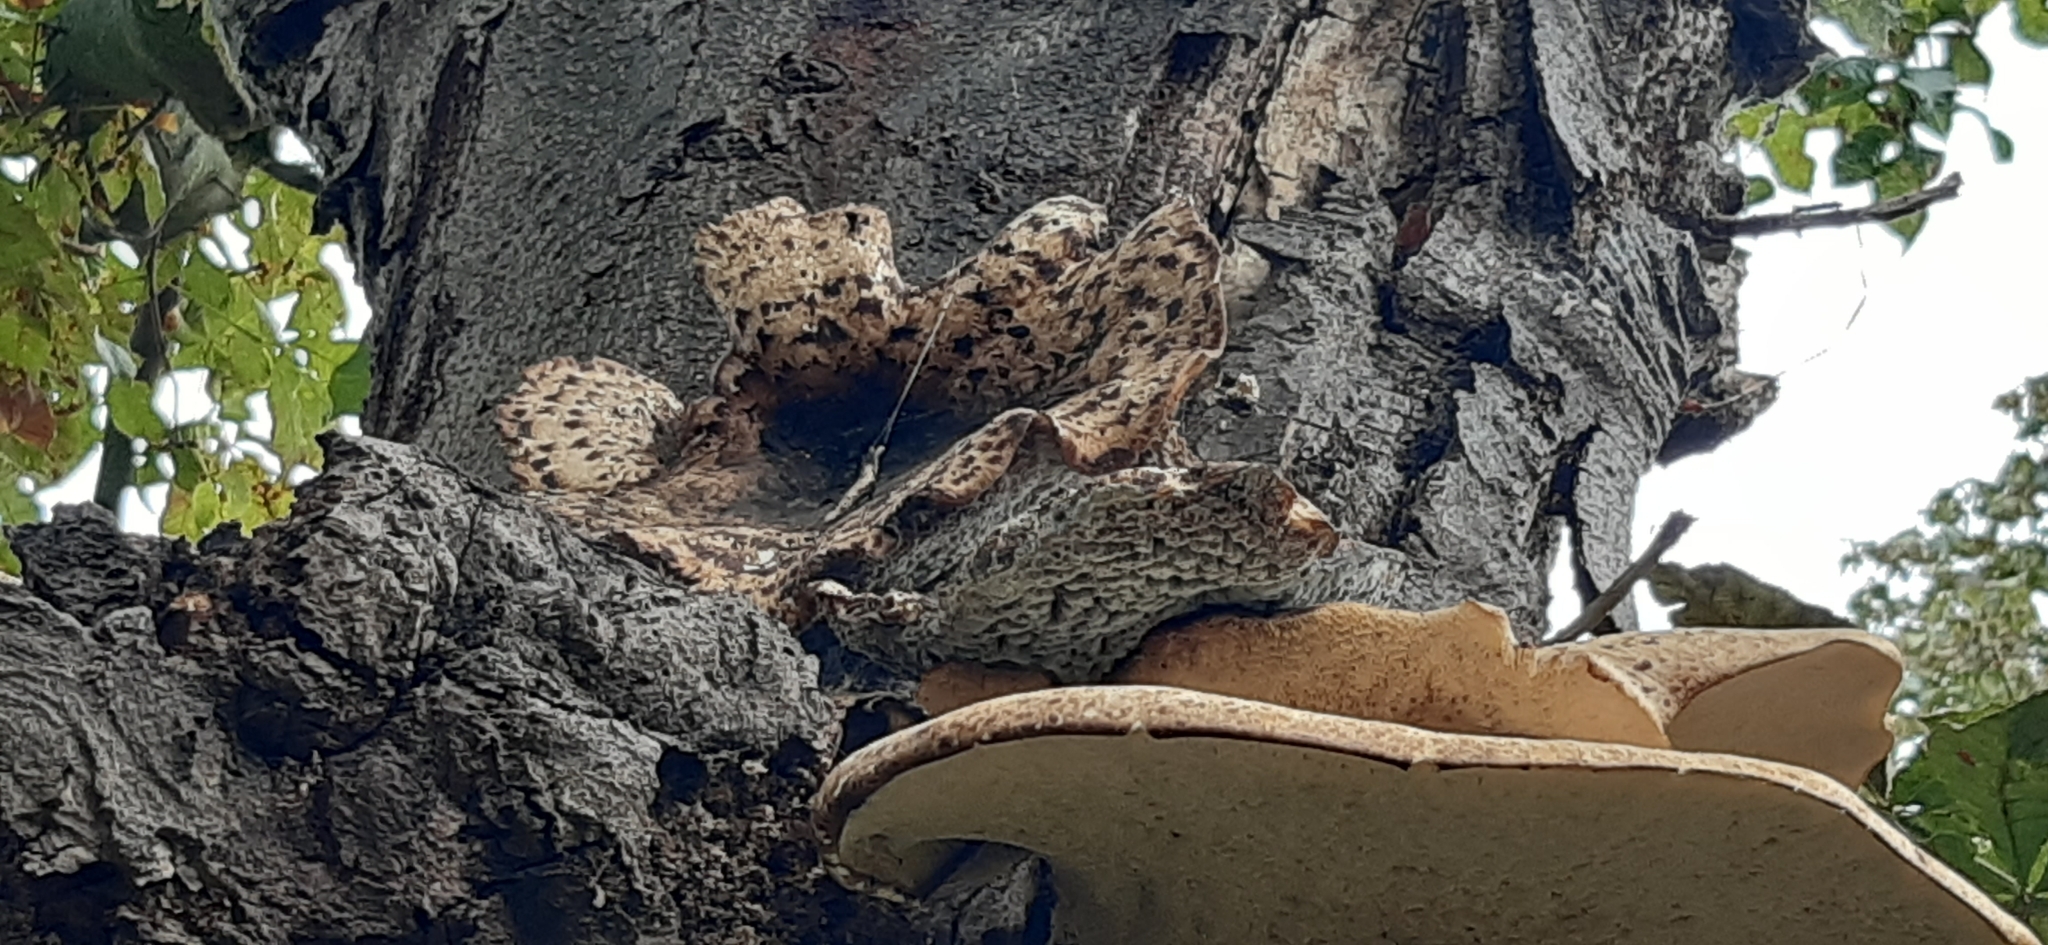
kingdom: Fungi
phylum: Basidiomycota
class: Agaricomycetes
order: Polyporales
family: Polyporaceae
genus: Cerioporus
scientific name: Cerioporus squamosus
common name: Dryad's saddle
